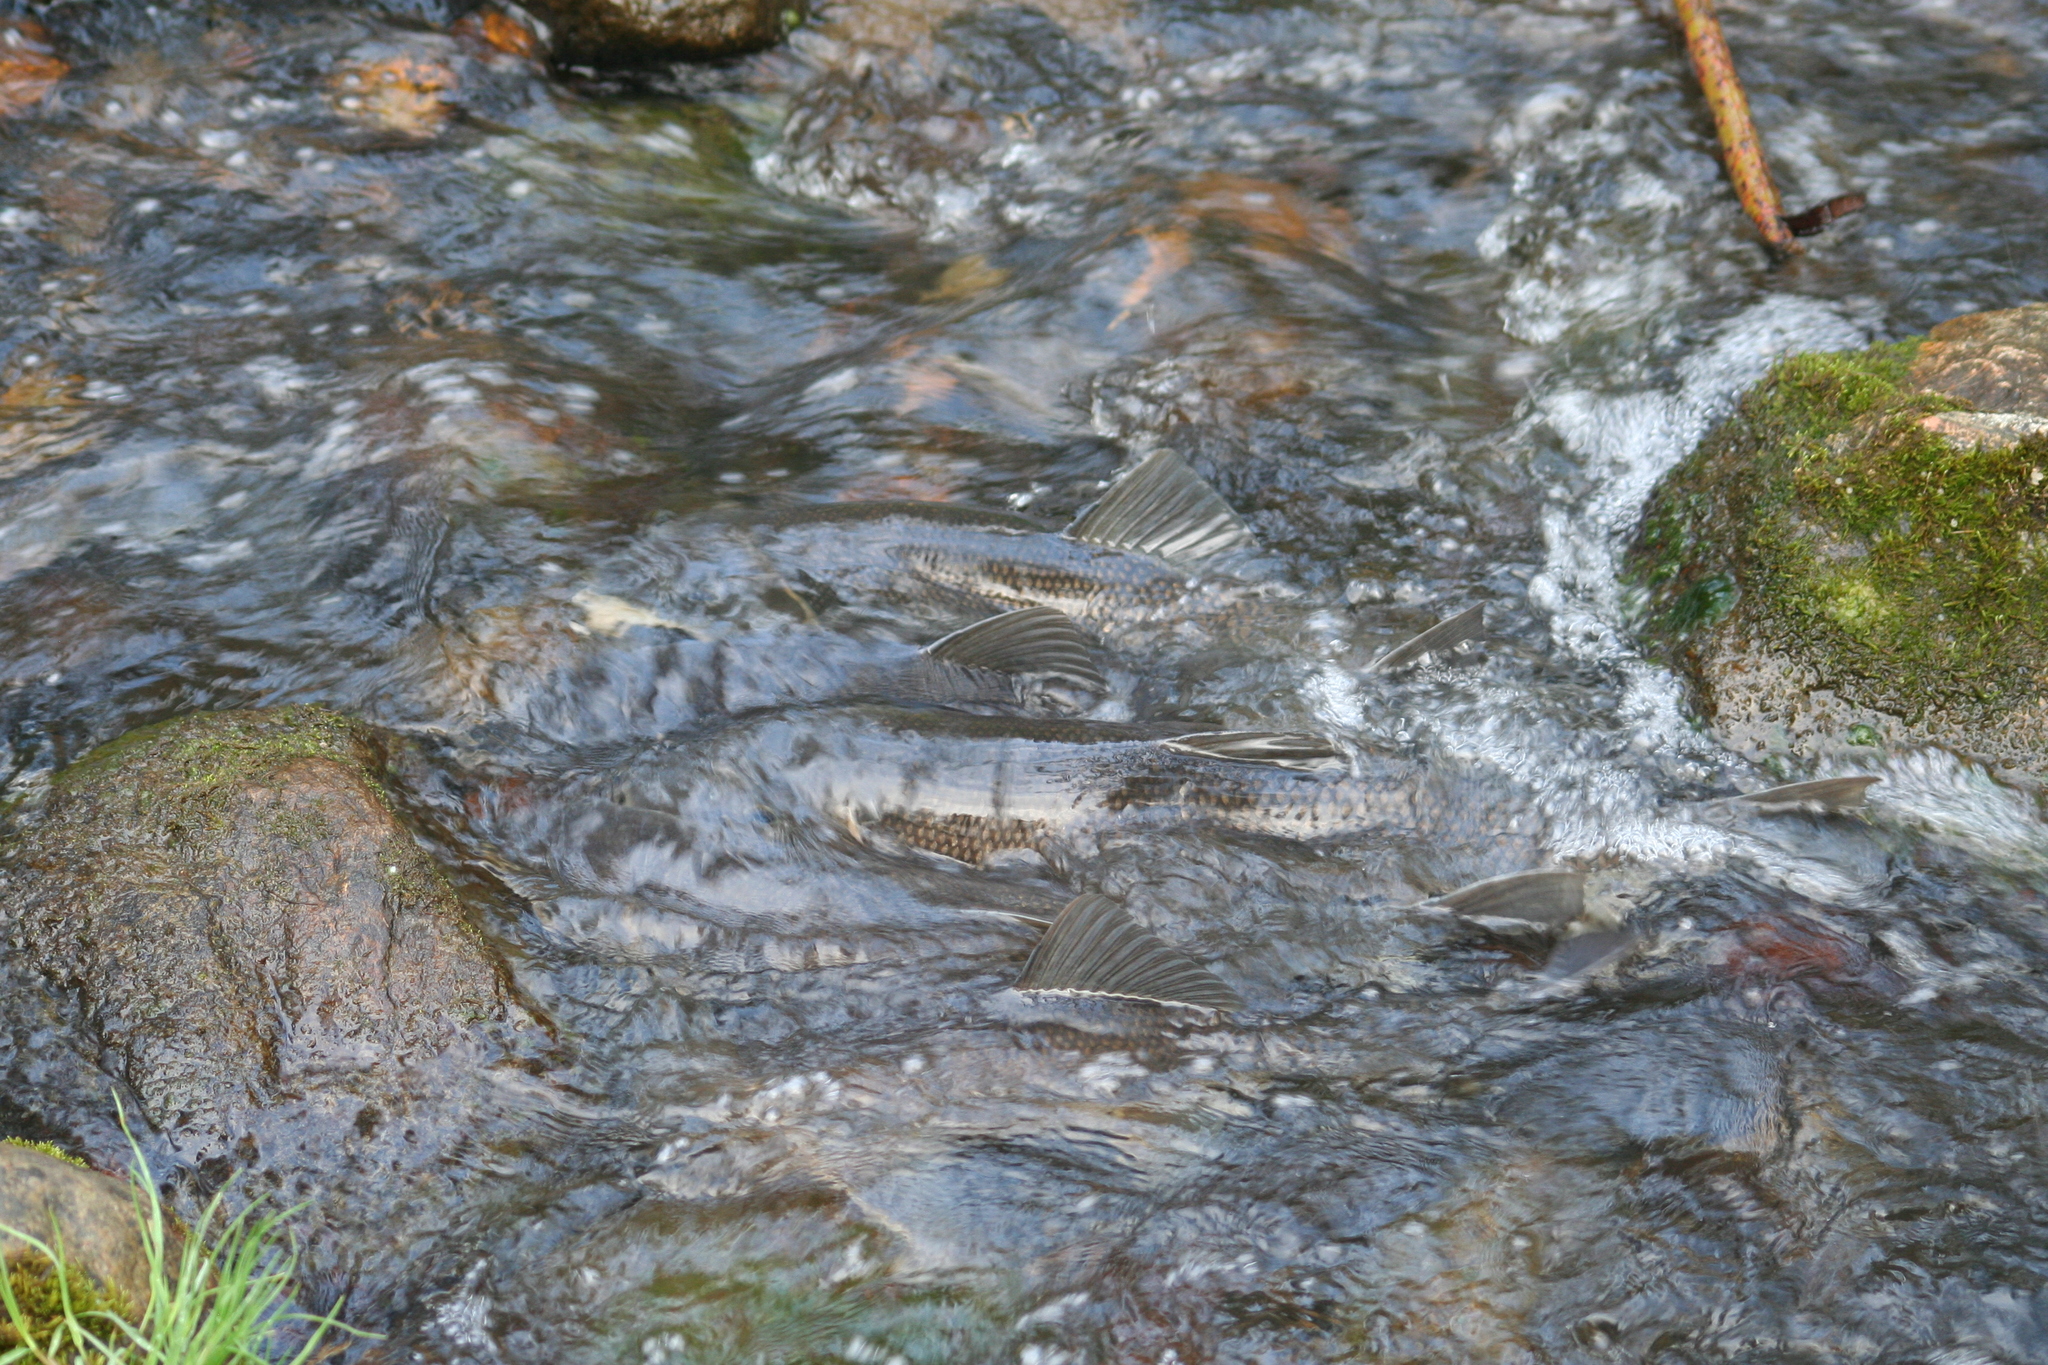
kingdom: Animalia
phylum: Chordata
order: Cypriniformes
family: Catostomidae
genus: Catostomus
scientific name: Catostomus commersonii
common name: White sucker
